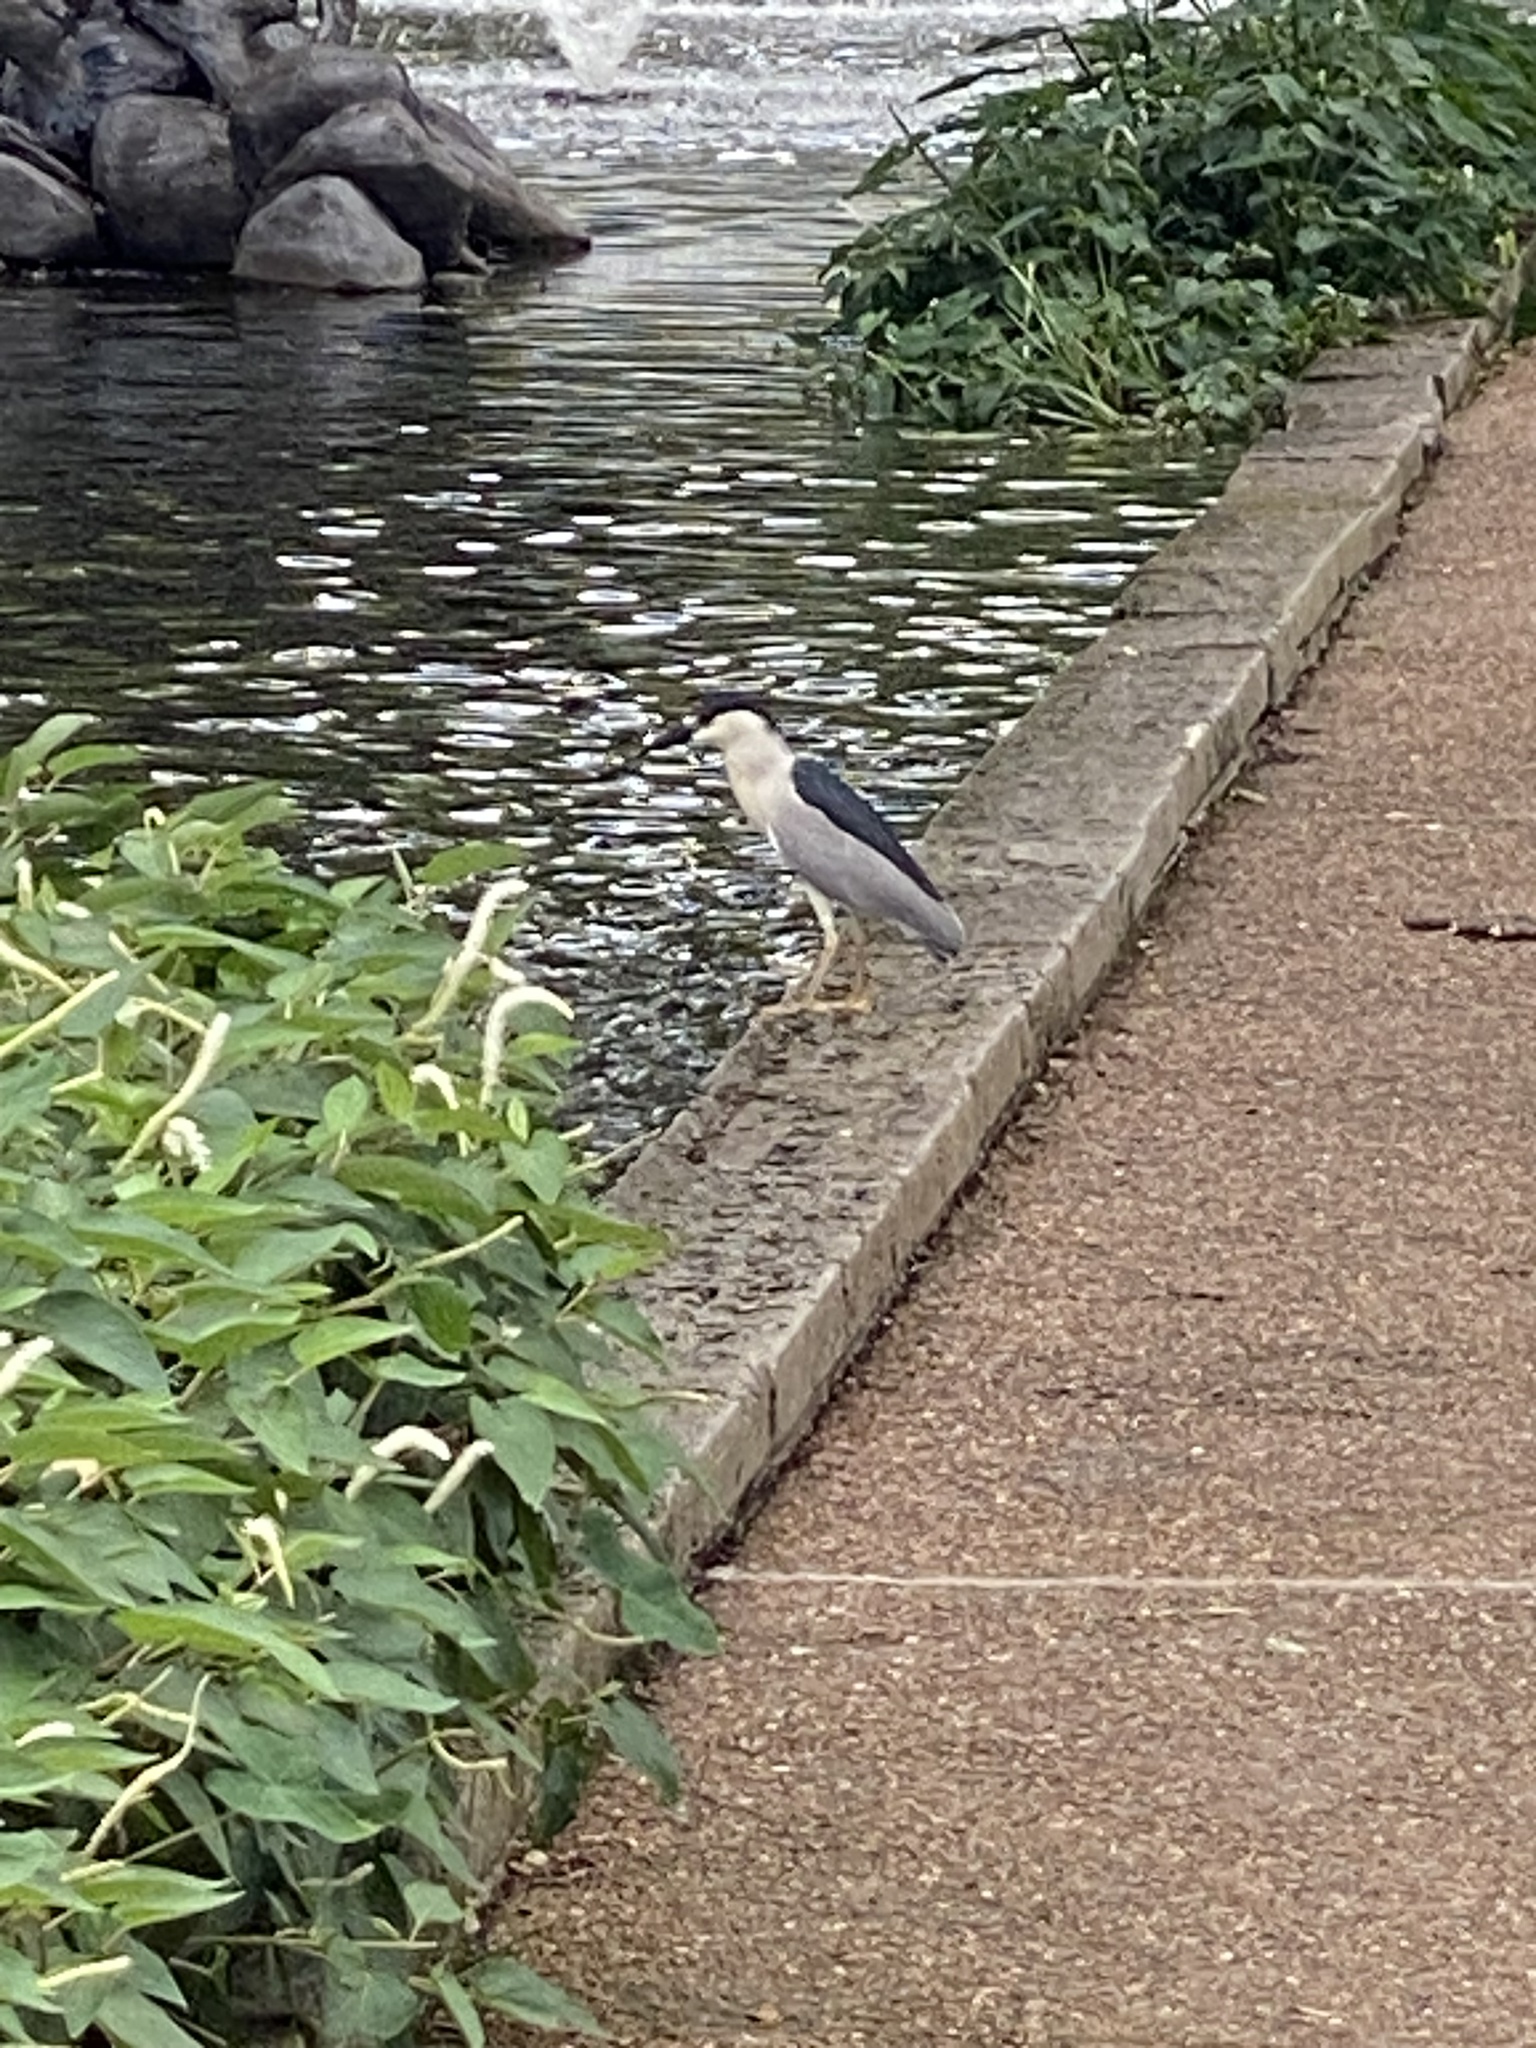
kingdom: Animalia
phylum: Chordata
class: Aves
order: Pelecaniformes
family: Ardeidae
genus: Nycticorax
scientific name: Nycticorax nycticorax
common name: Black-crowned night heron
